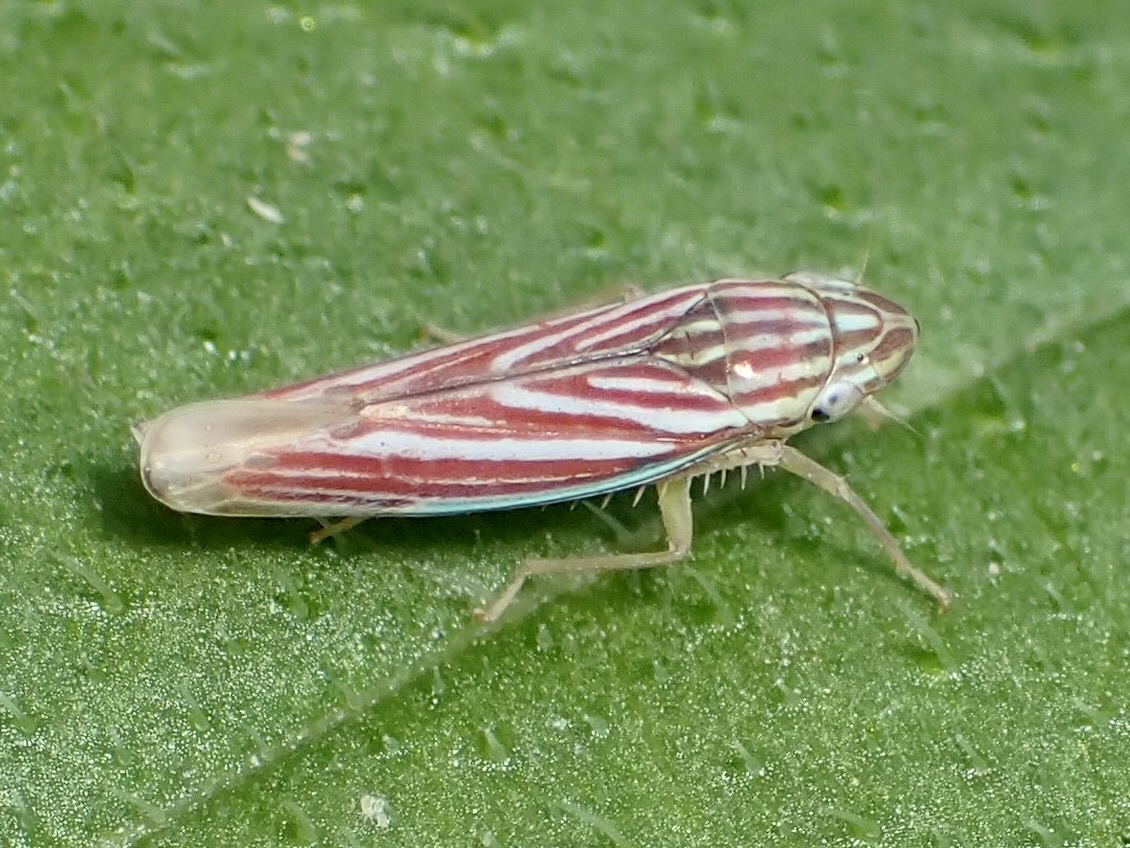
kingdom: Animalia
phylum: Arthropoda
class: Insecta
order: Hemiptera
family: Cicadellidae
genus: Sibovia
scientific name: Sibovia compta
